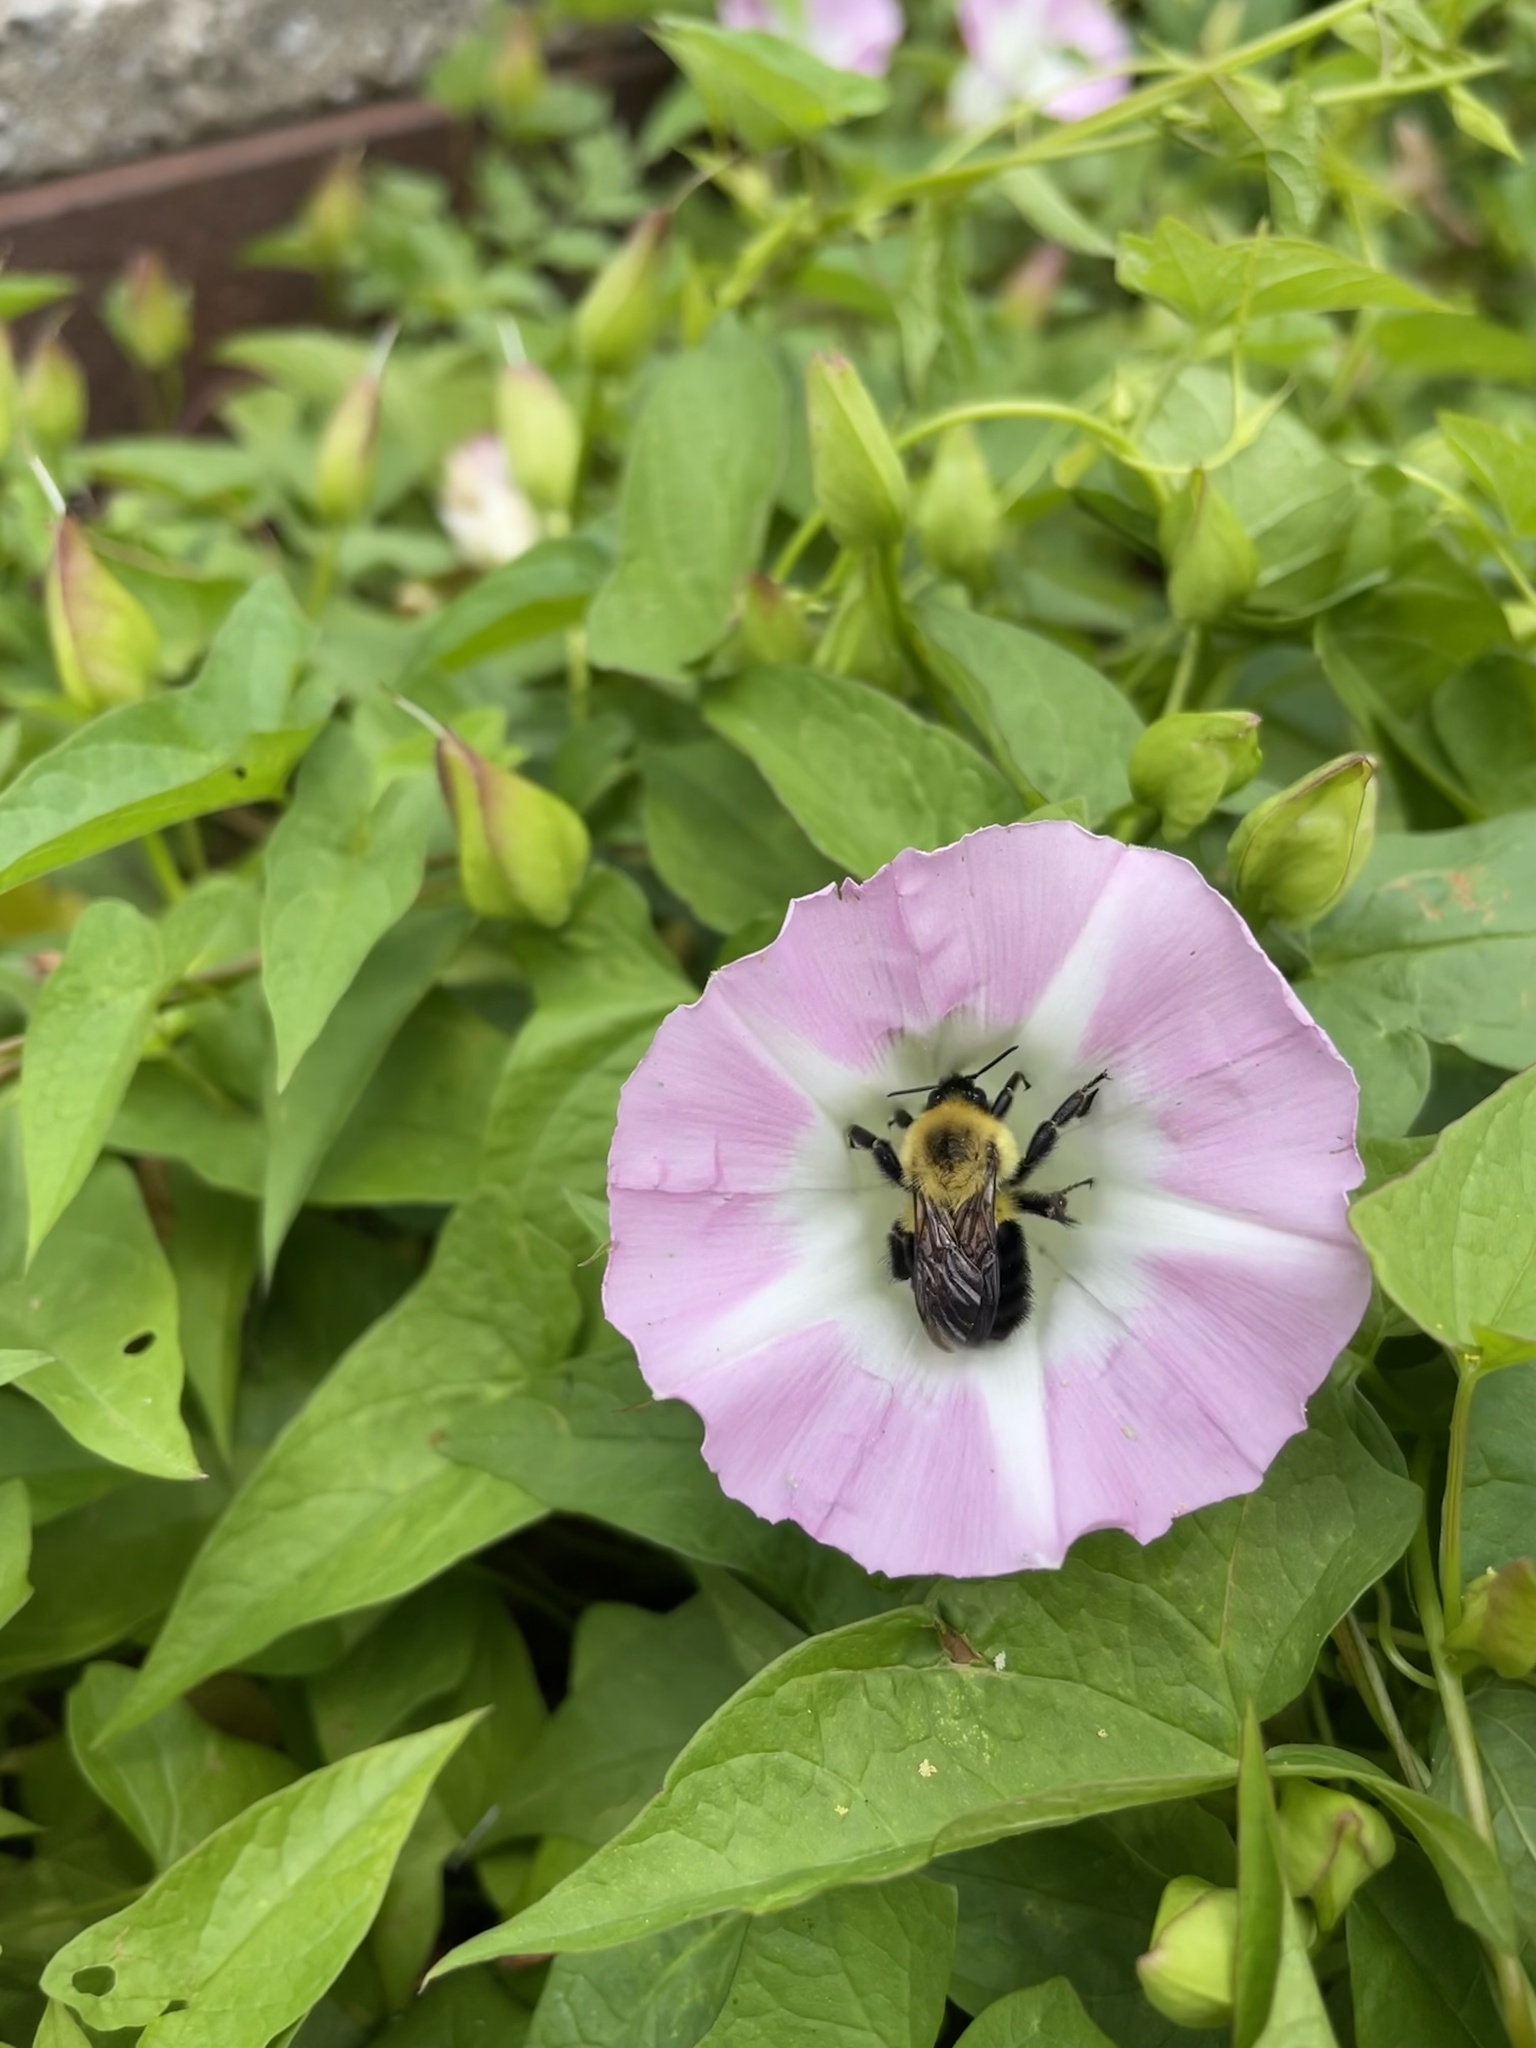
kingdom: Animalia
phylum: Arthropoda
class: Insecta
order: Hymenoptera
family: Apidae
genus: Bombus
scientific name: Bombus bimaculatus
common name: Two-spotted bumble bee
